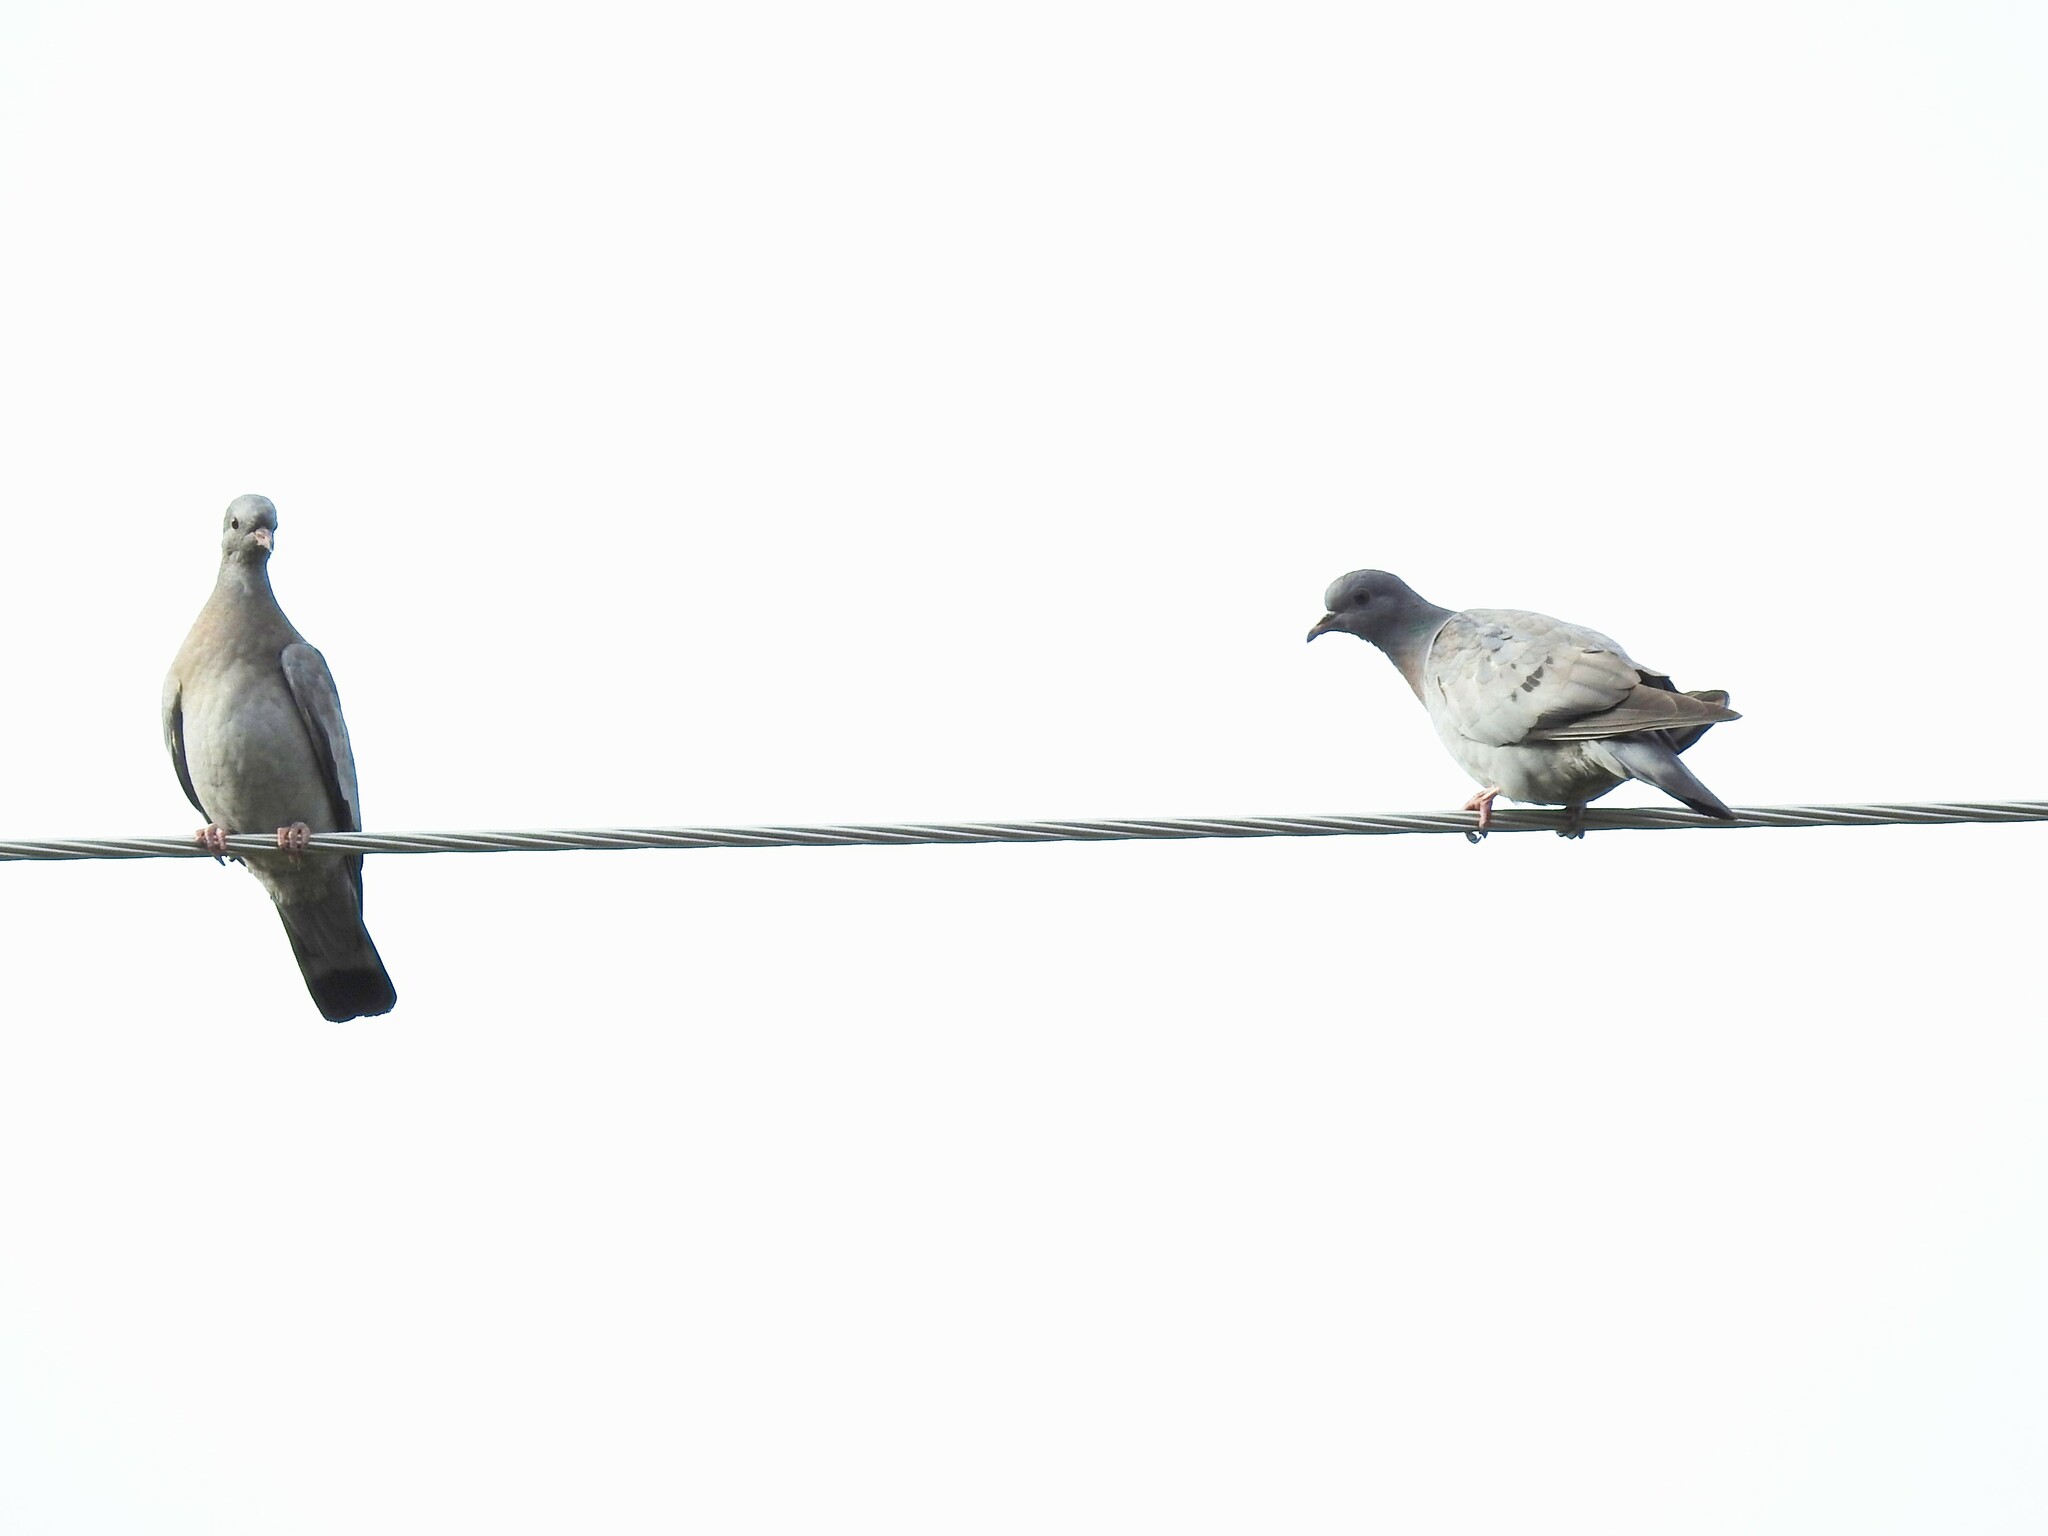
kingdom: Animalia
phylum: Chordata
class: Aves
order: Columbiformes
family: Columbidae
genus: Columba
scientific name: Columba oenas
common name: Stock dove
